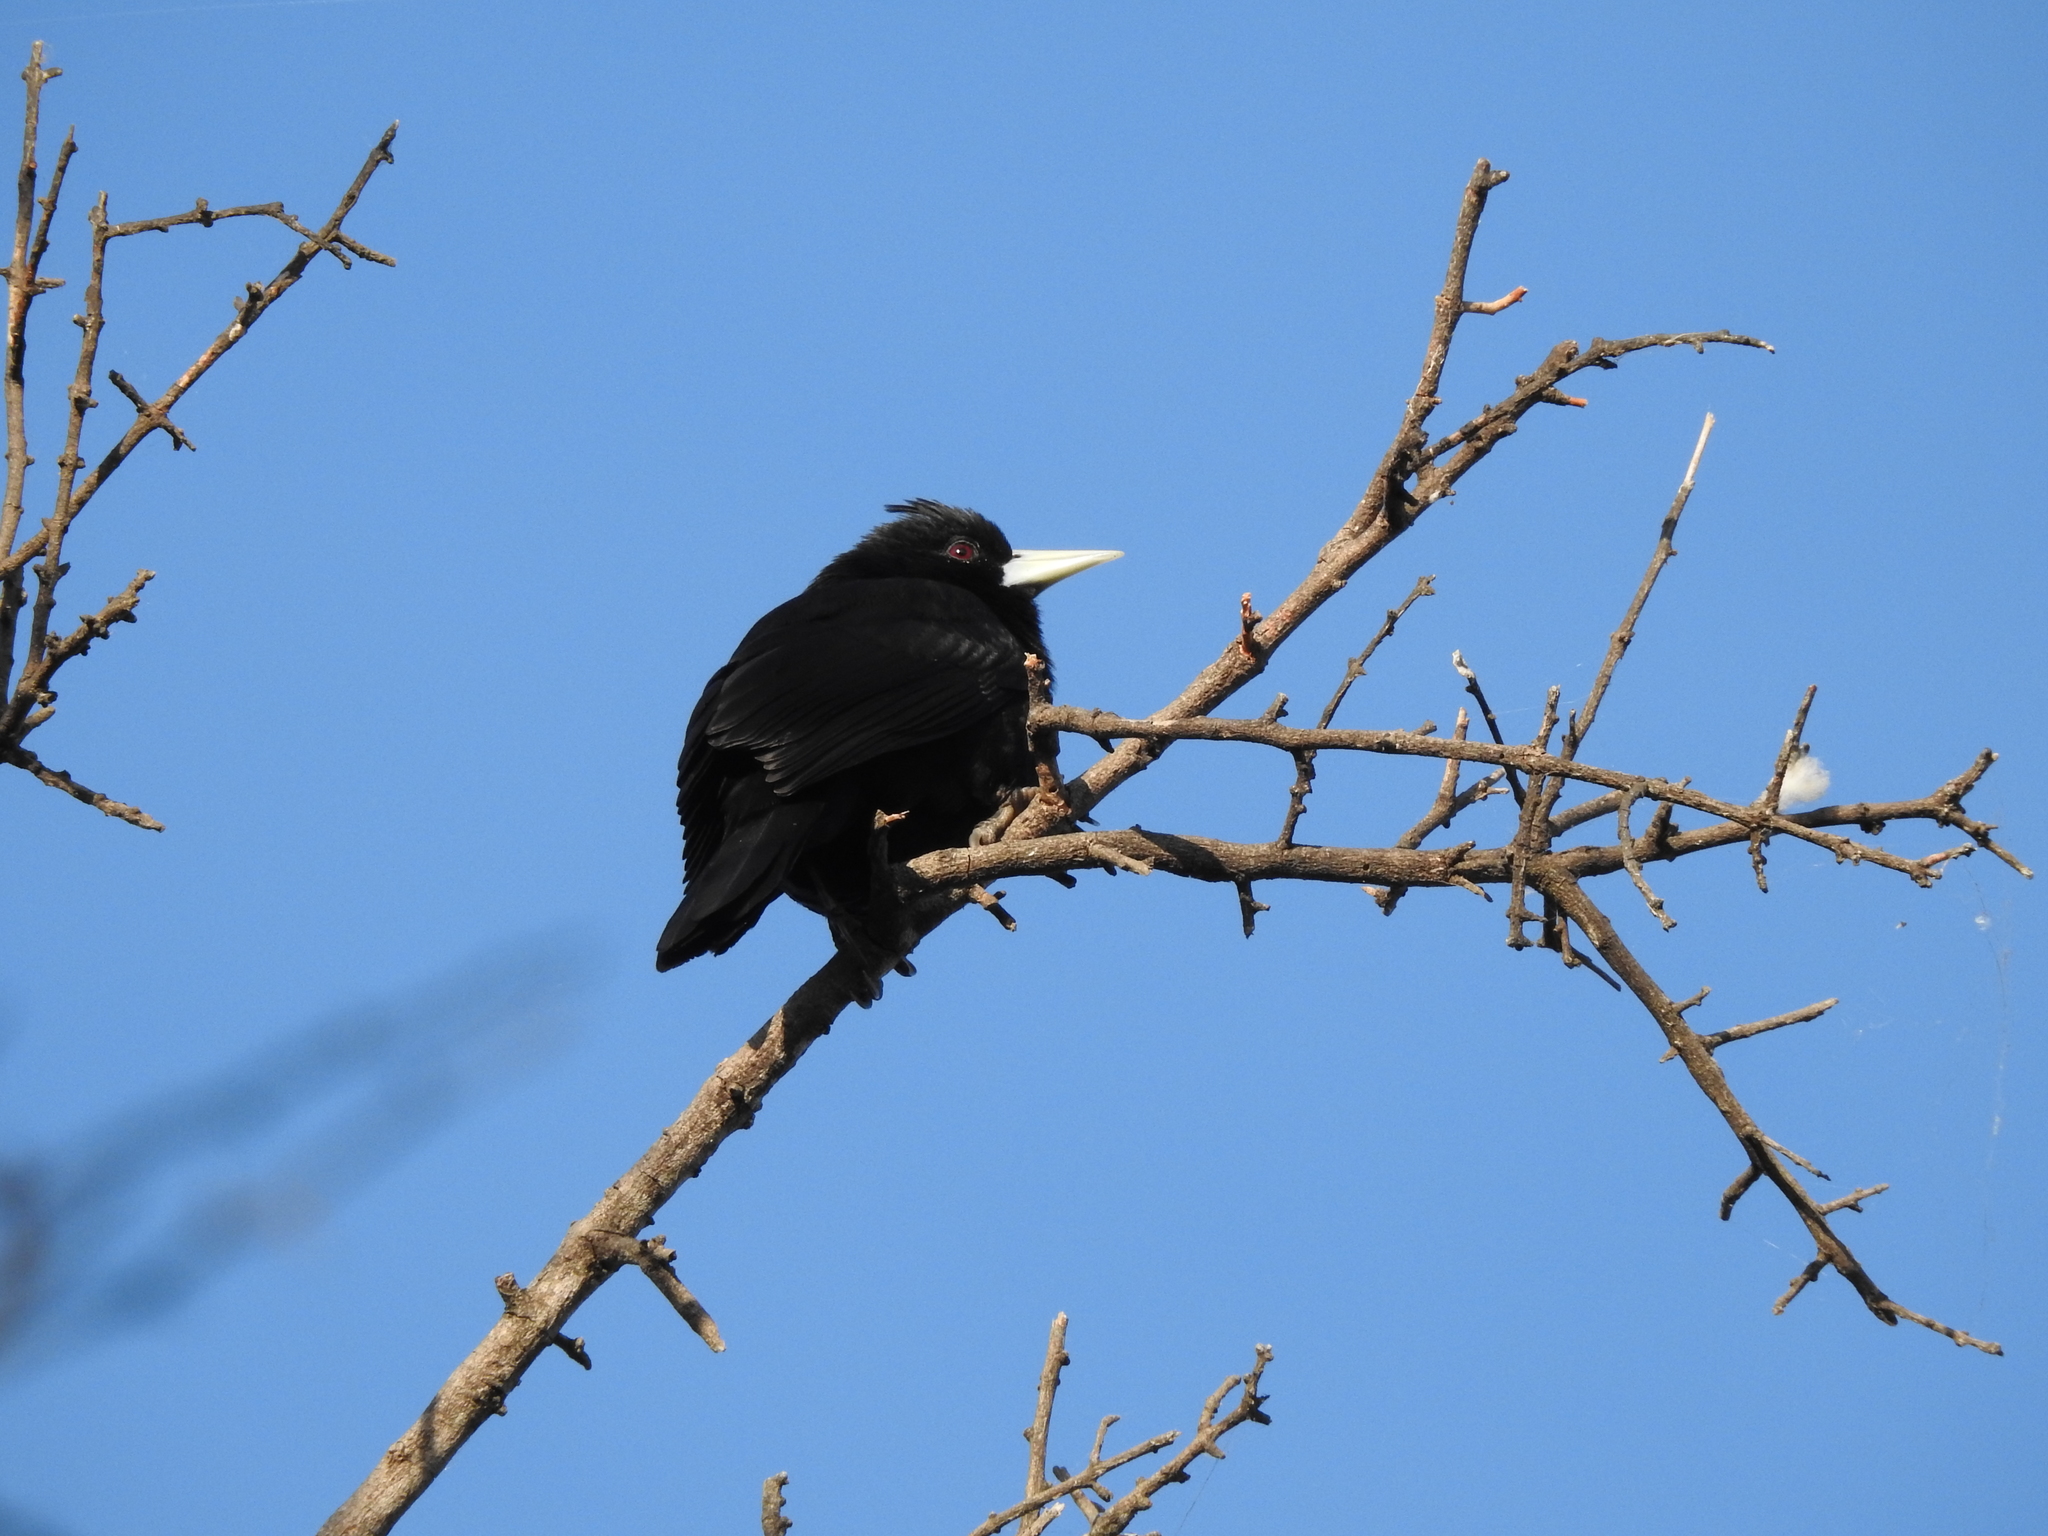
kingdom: Animalia
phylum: Chordata
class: Aves
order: Passeriformes
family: Icteridae
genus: Cacicus
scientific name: Cacicus solitarius
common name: Solitary cacique
